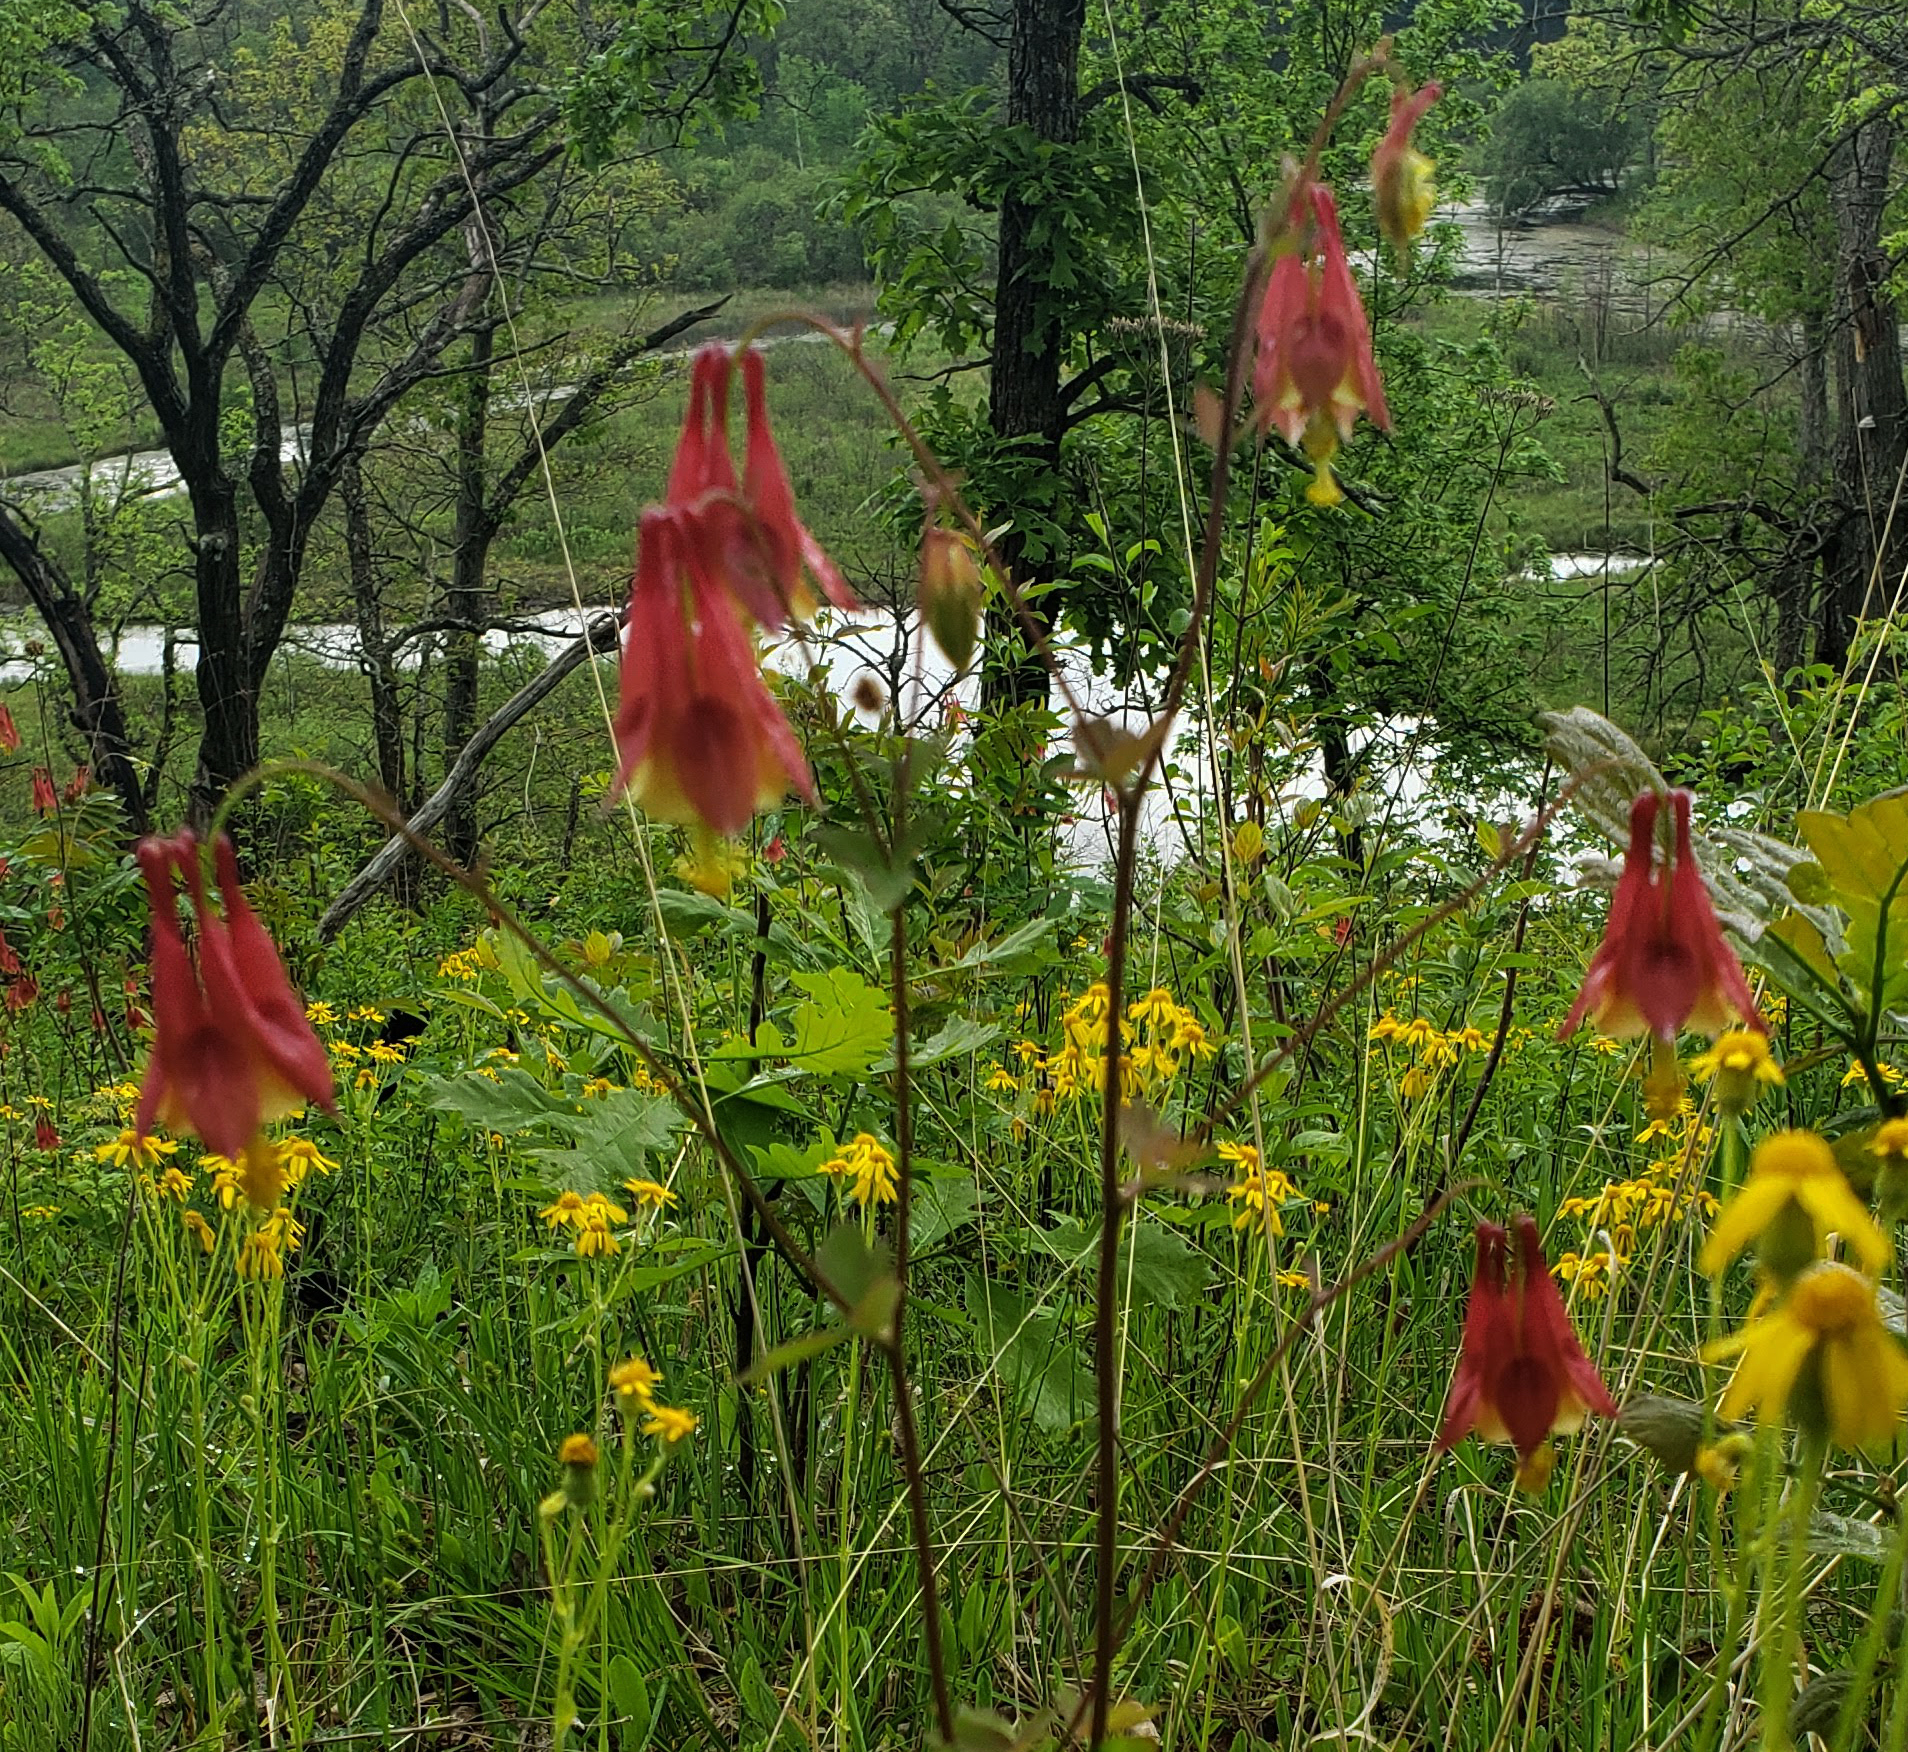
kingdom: Plantae
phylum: Tracheophyta
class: Magnoliopsida
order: Ranunculales
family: Ranunculaceae
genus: Aquilegia
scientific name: Aquilegia canadensis
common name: American columbine
